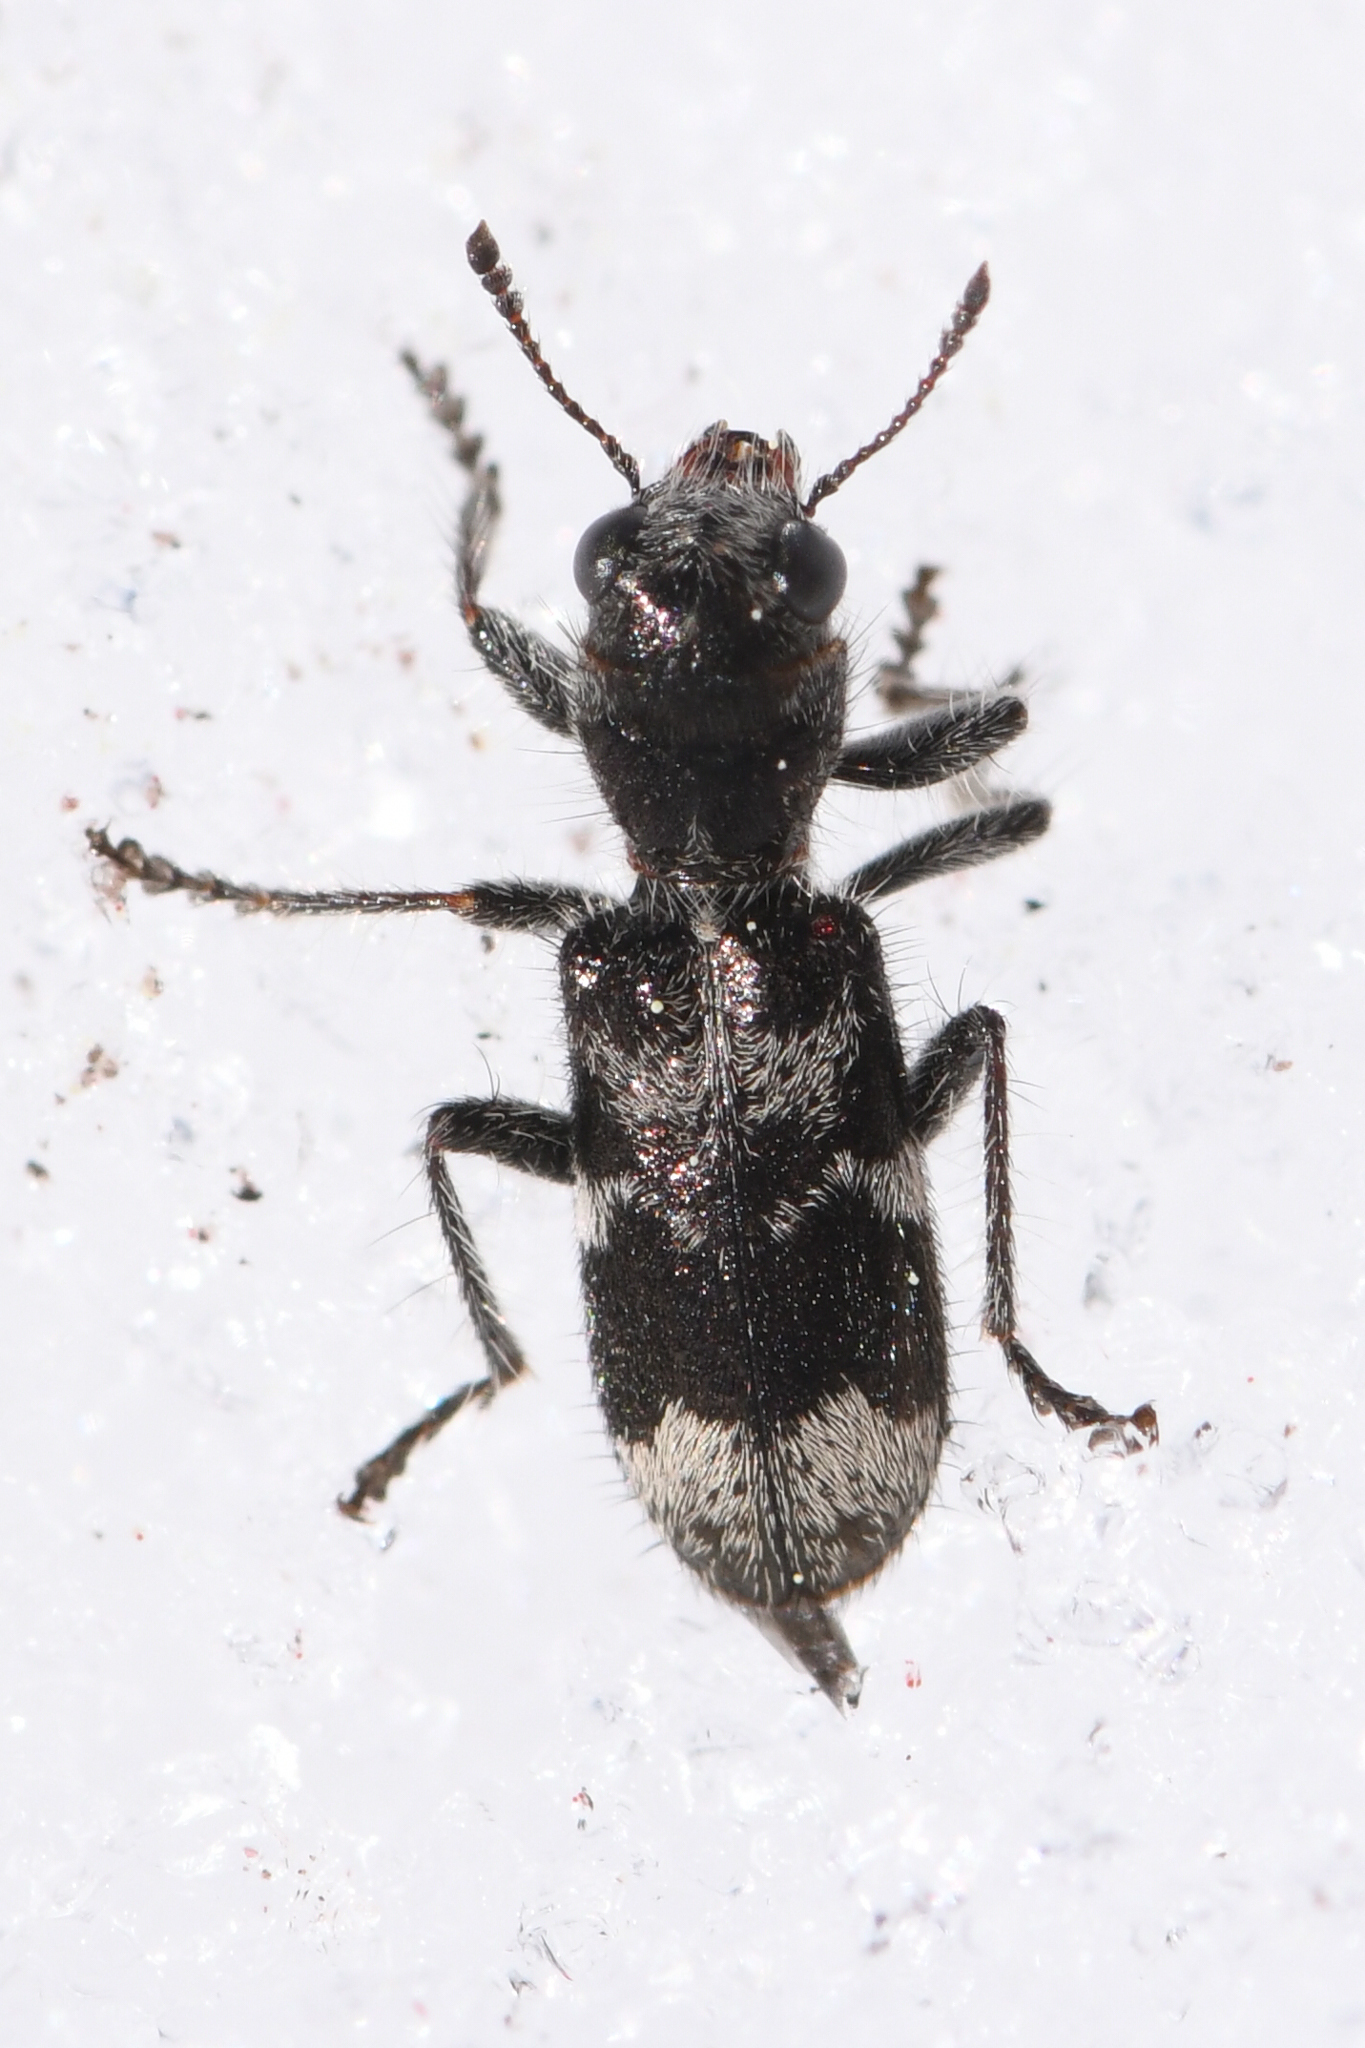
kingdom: Animalia
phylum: Arthropoda
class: Insecta
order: Coleoptera
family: Cleridae
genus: Enoclerus
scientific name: Enoclerus lecontei
